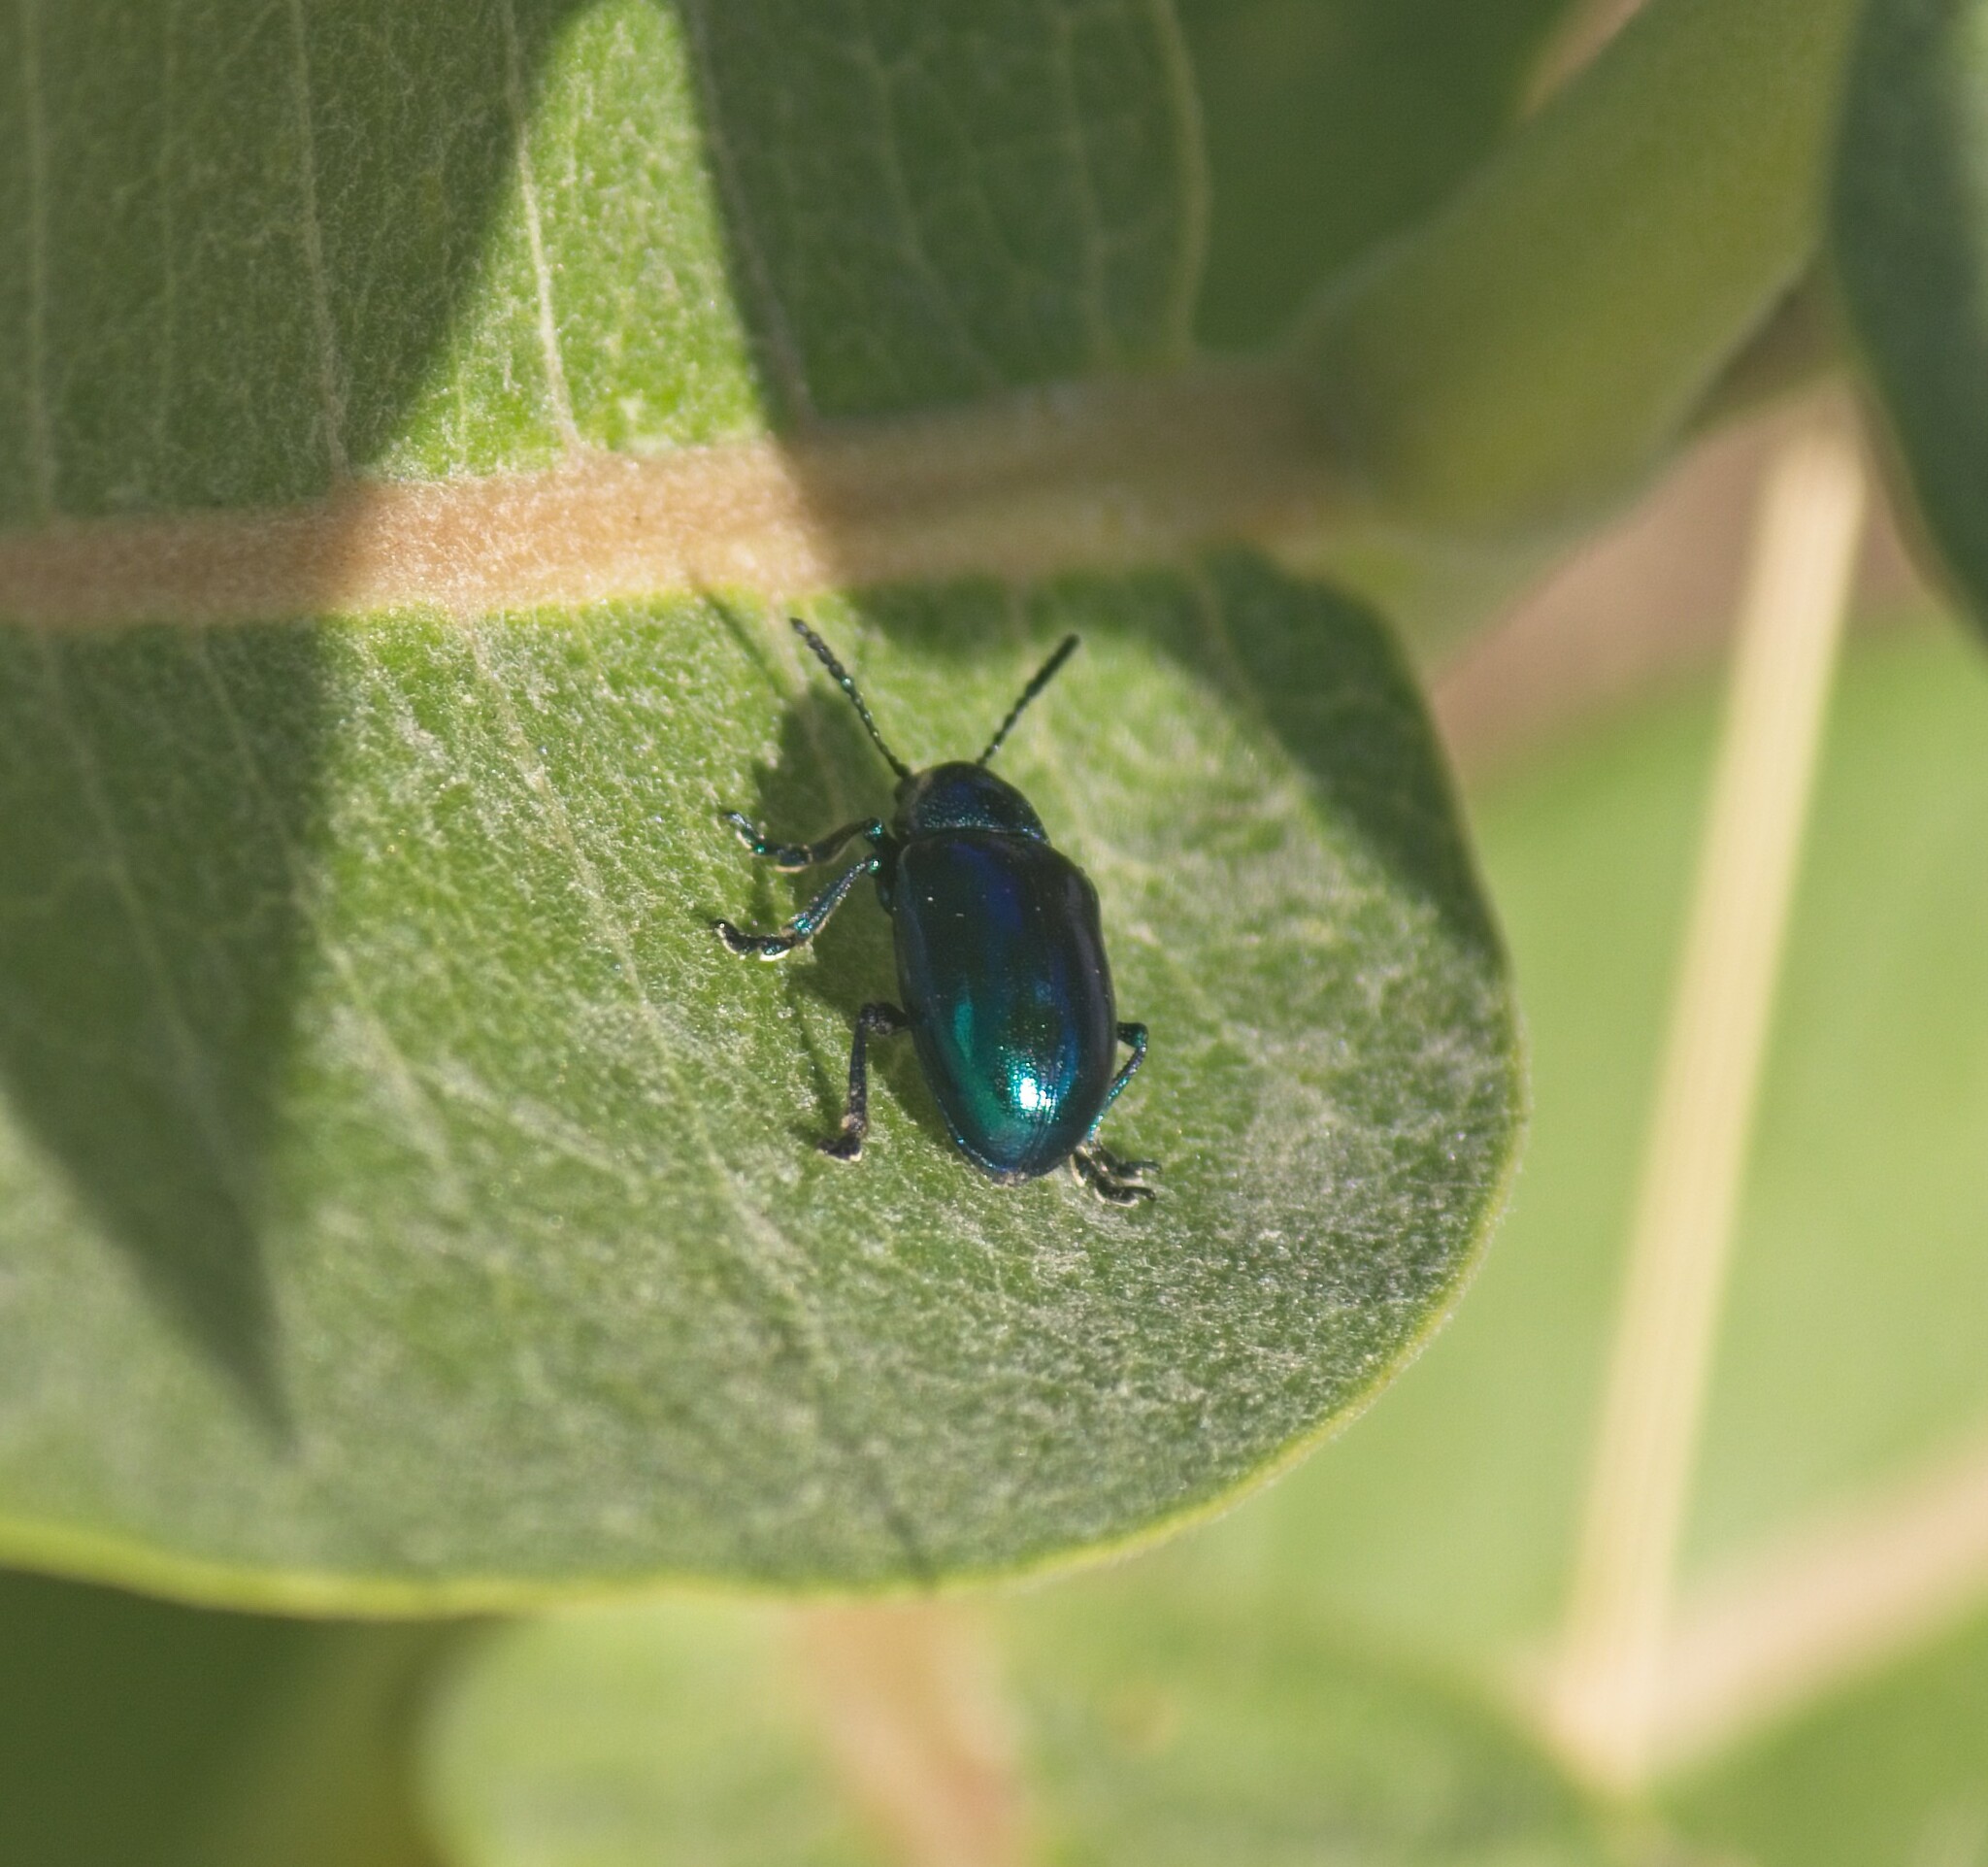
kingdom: Animalia
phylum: Arthropoda
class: Insecta
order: Coleoptera
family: Chrysomelidae
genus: Chrysochus
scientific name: Chrysochus cobaltinus
